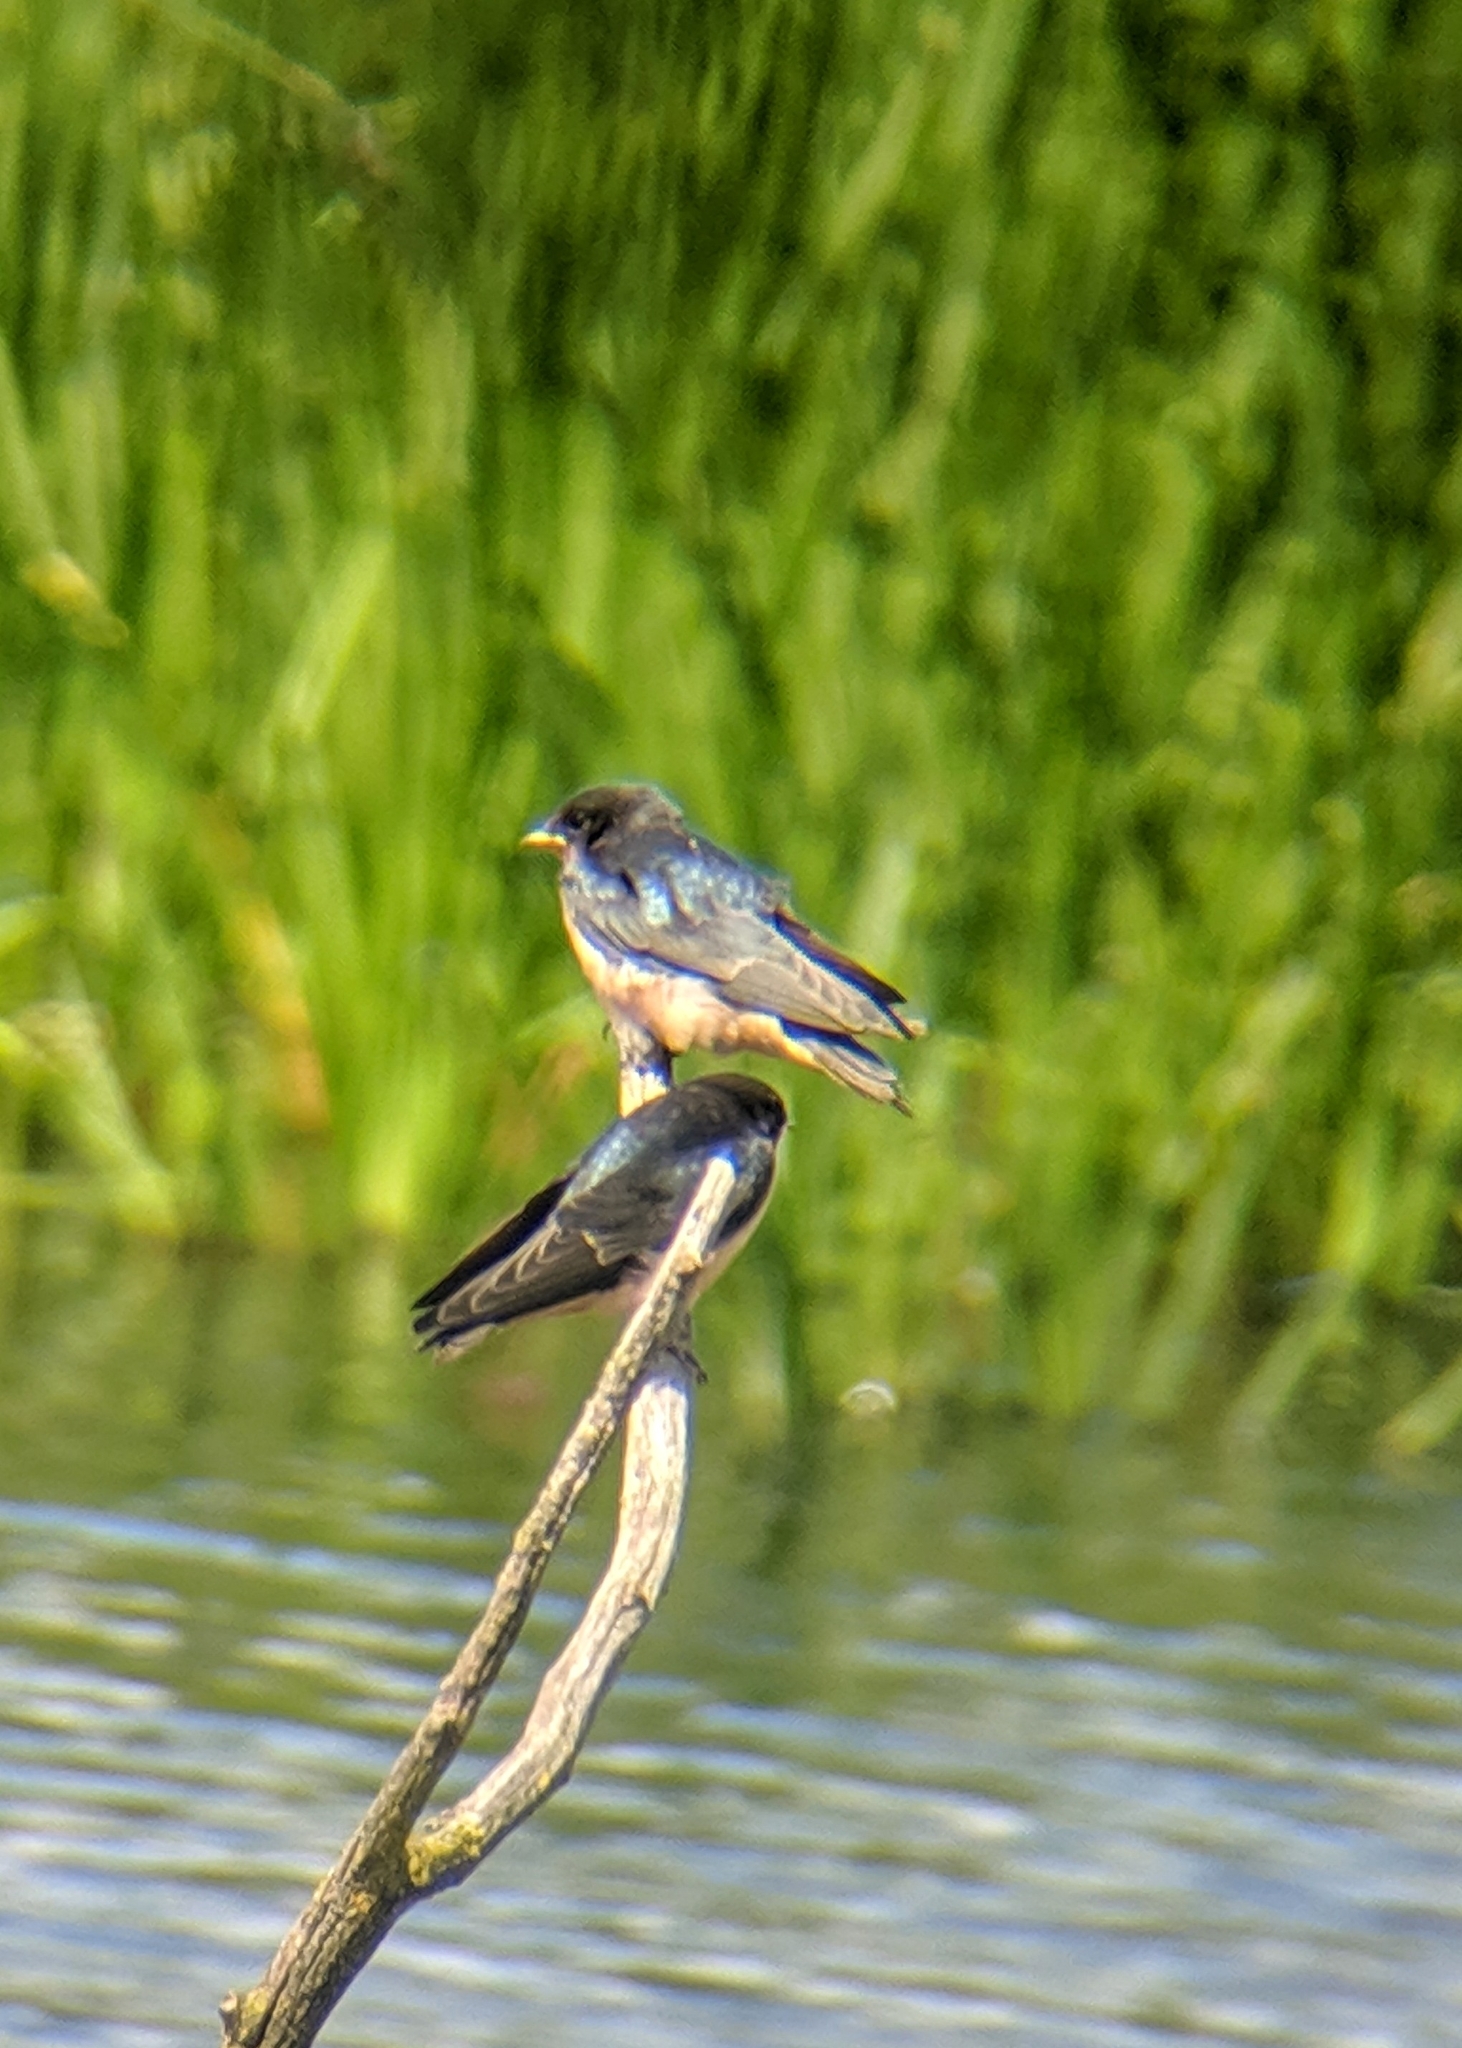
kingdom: Animalia
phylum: Chordata
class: Aves
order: Passeriformes
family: Hirundinidae
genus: Hirundo
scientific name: Hirundo rustica
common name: Barn swallow
